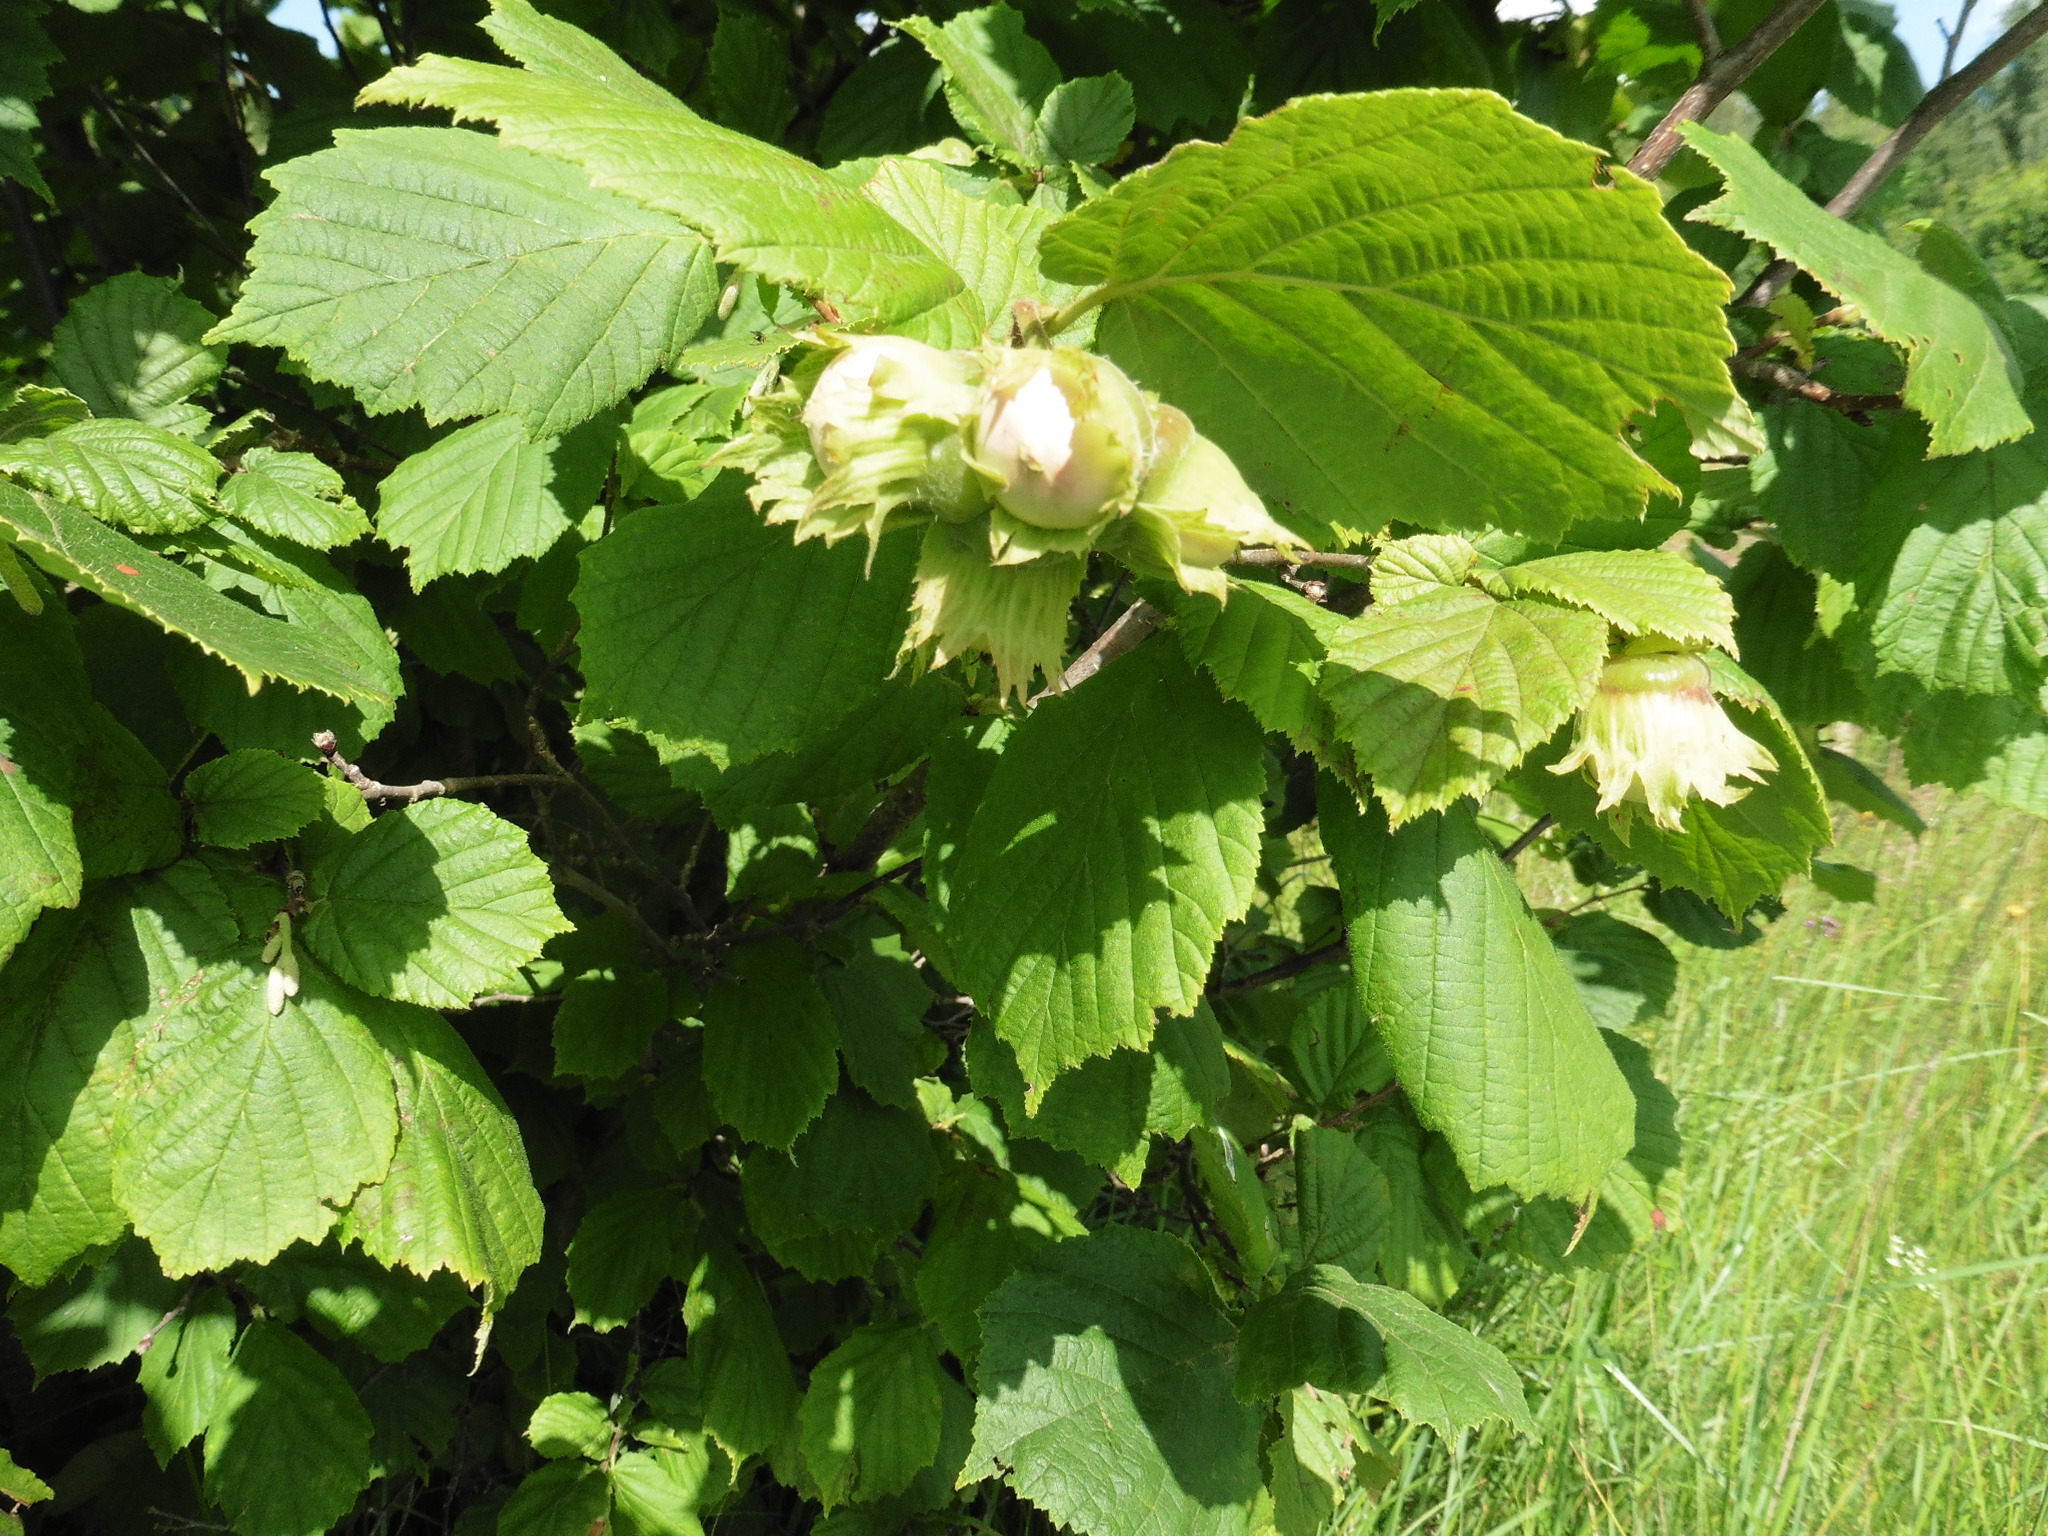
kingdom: Plantae
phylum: Tracheophyta
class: Magnoliopsida
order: Fagales
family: Betulaceae
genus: Corylus
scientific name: Corylus avellana
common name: European hazel
